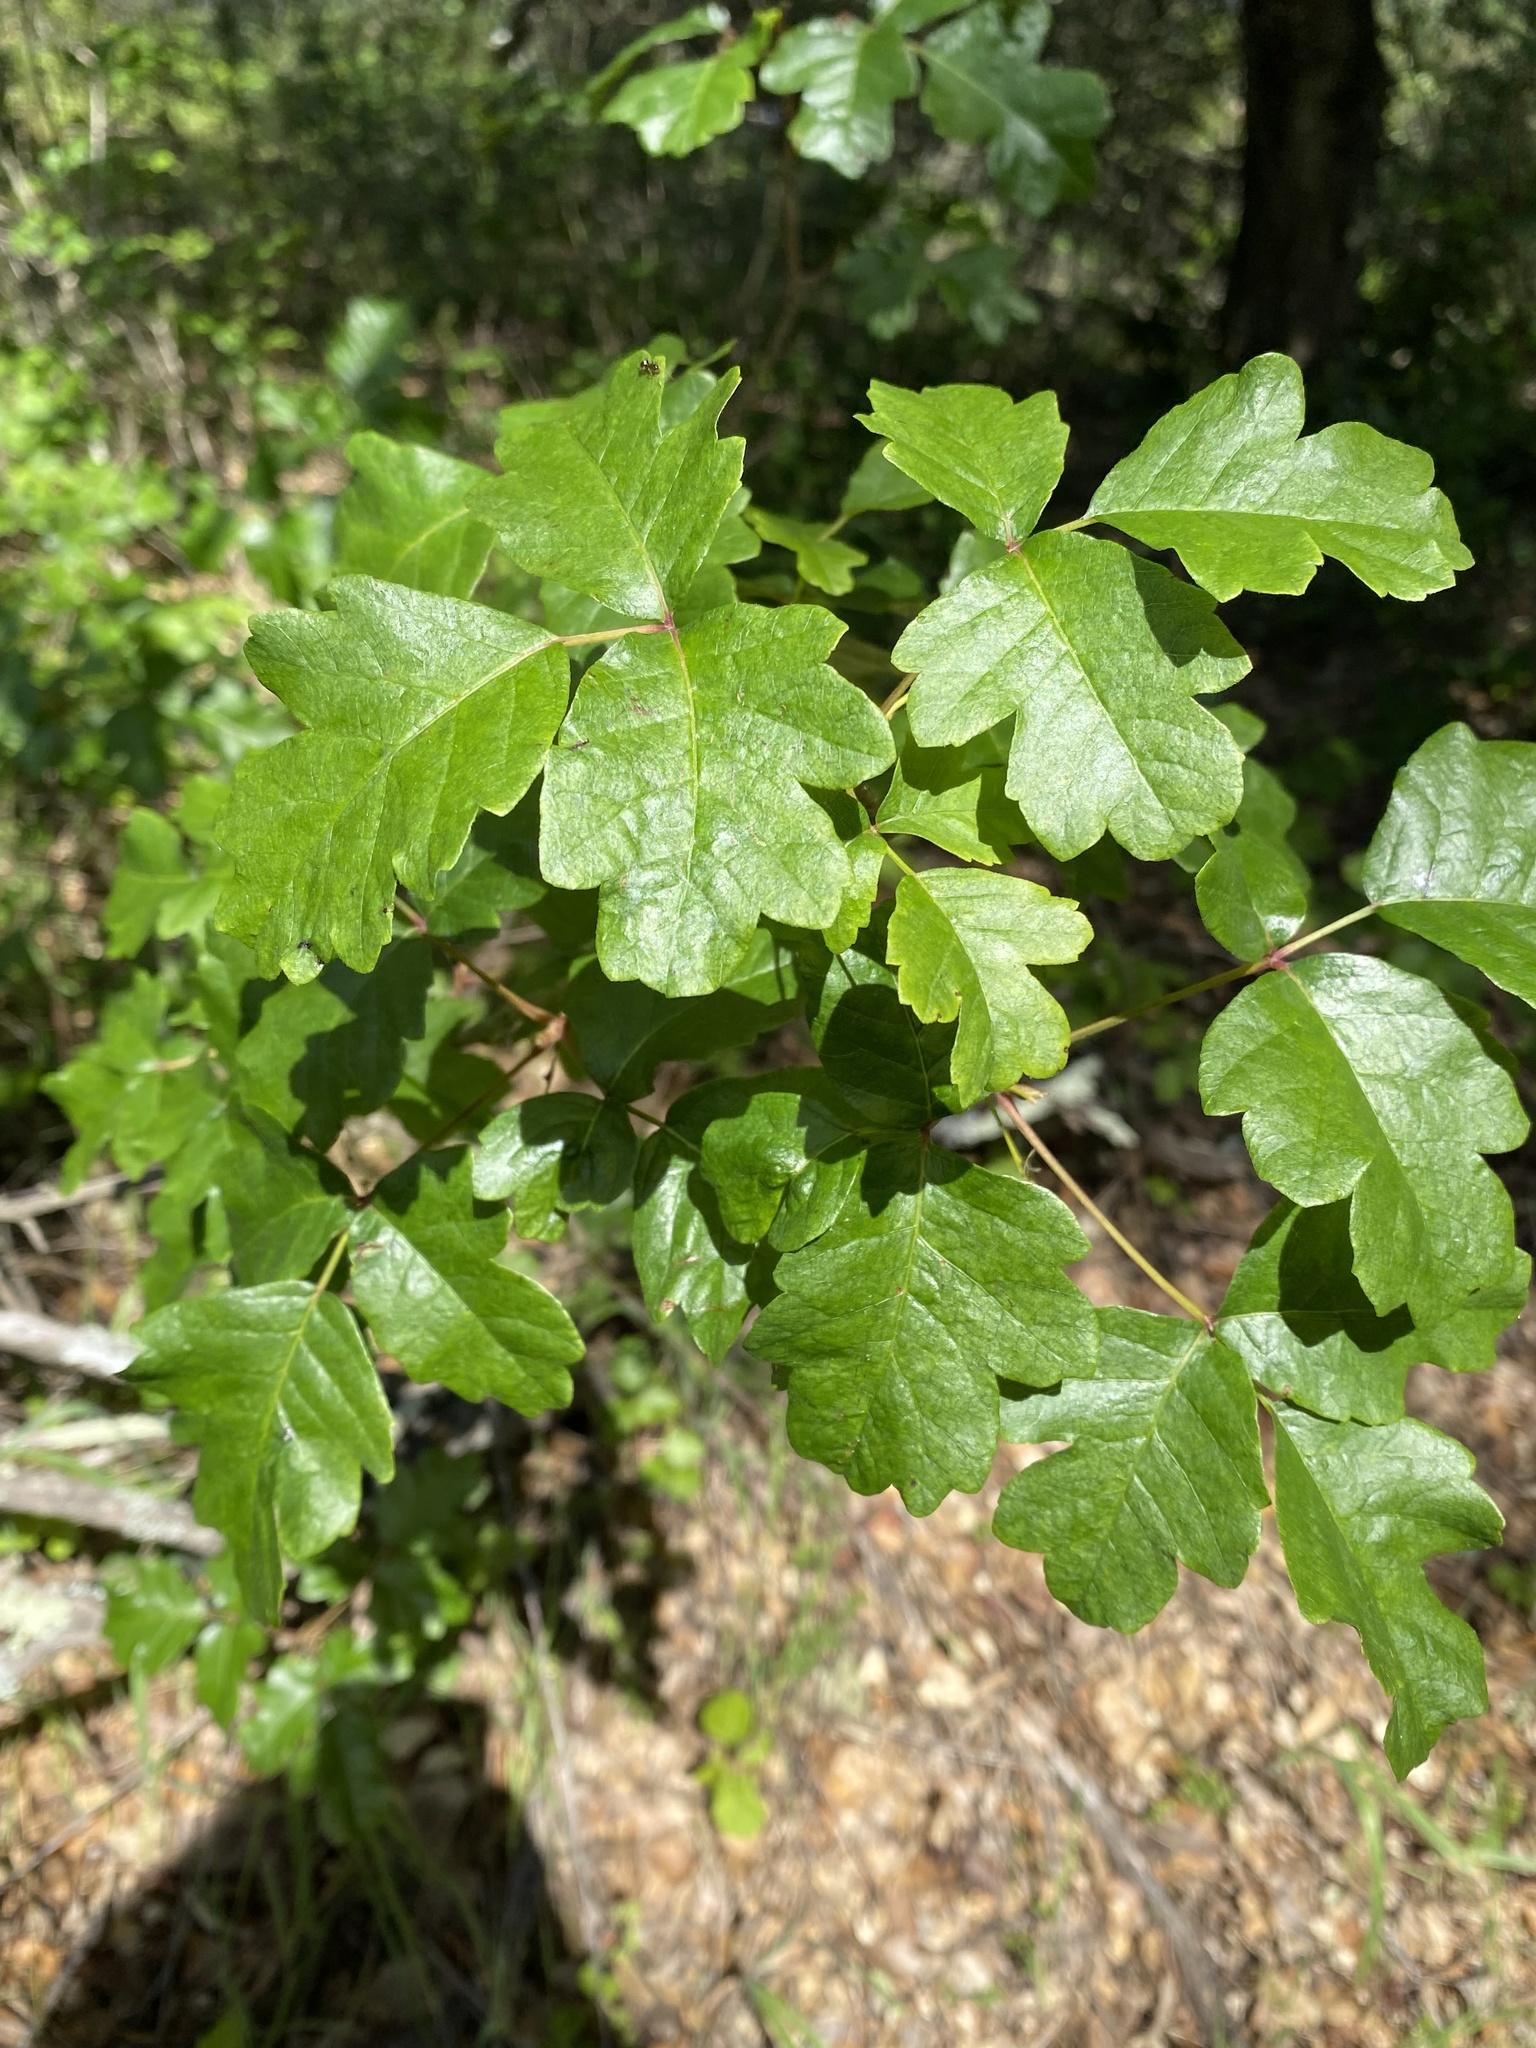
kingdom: Plantae
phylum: Tracheophyta
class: Magnoliopsida
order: Sapindales
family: Anacardiaceae
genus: Toxicodendron
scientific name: Toxicodendron diversilobum
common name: Pacific poison-oak
